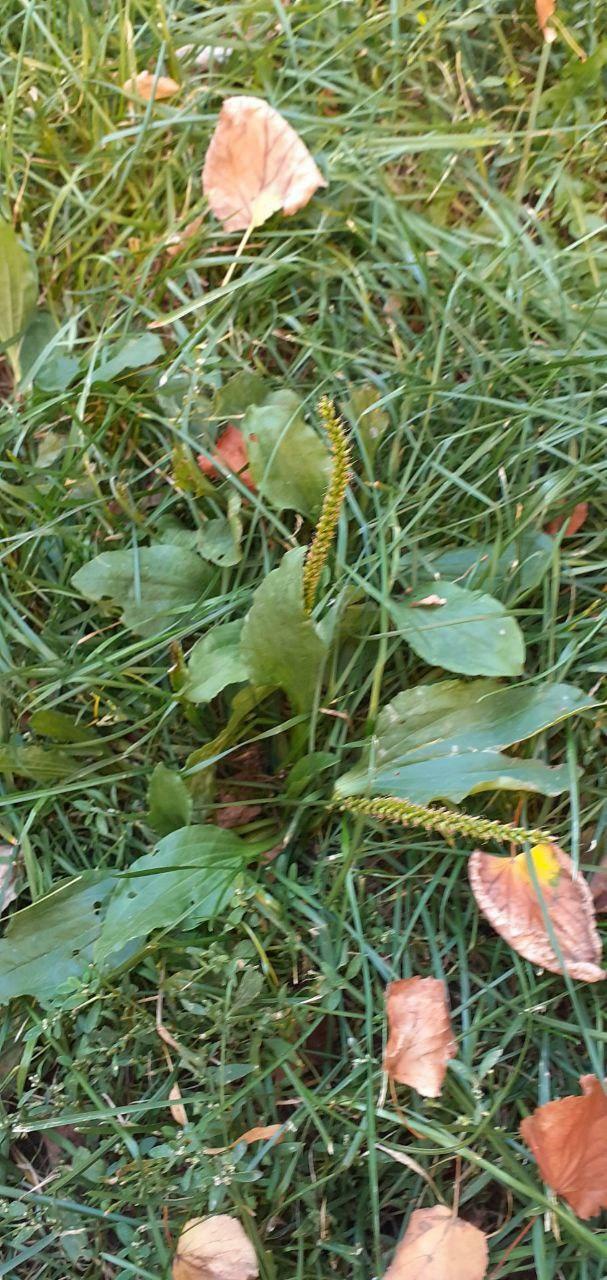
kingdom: Plantae
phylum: Tracheophyta
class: Magnoliopsida
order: Lamiales
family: Plantaginaceae
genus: Plantago
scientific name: Plantago major
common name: Common plantain
